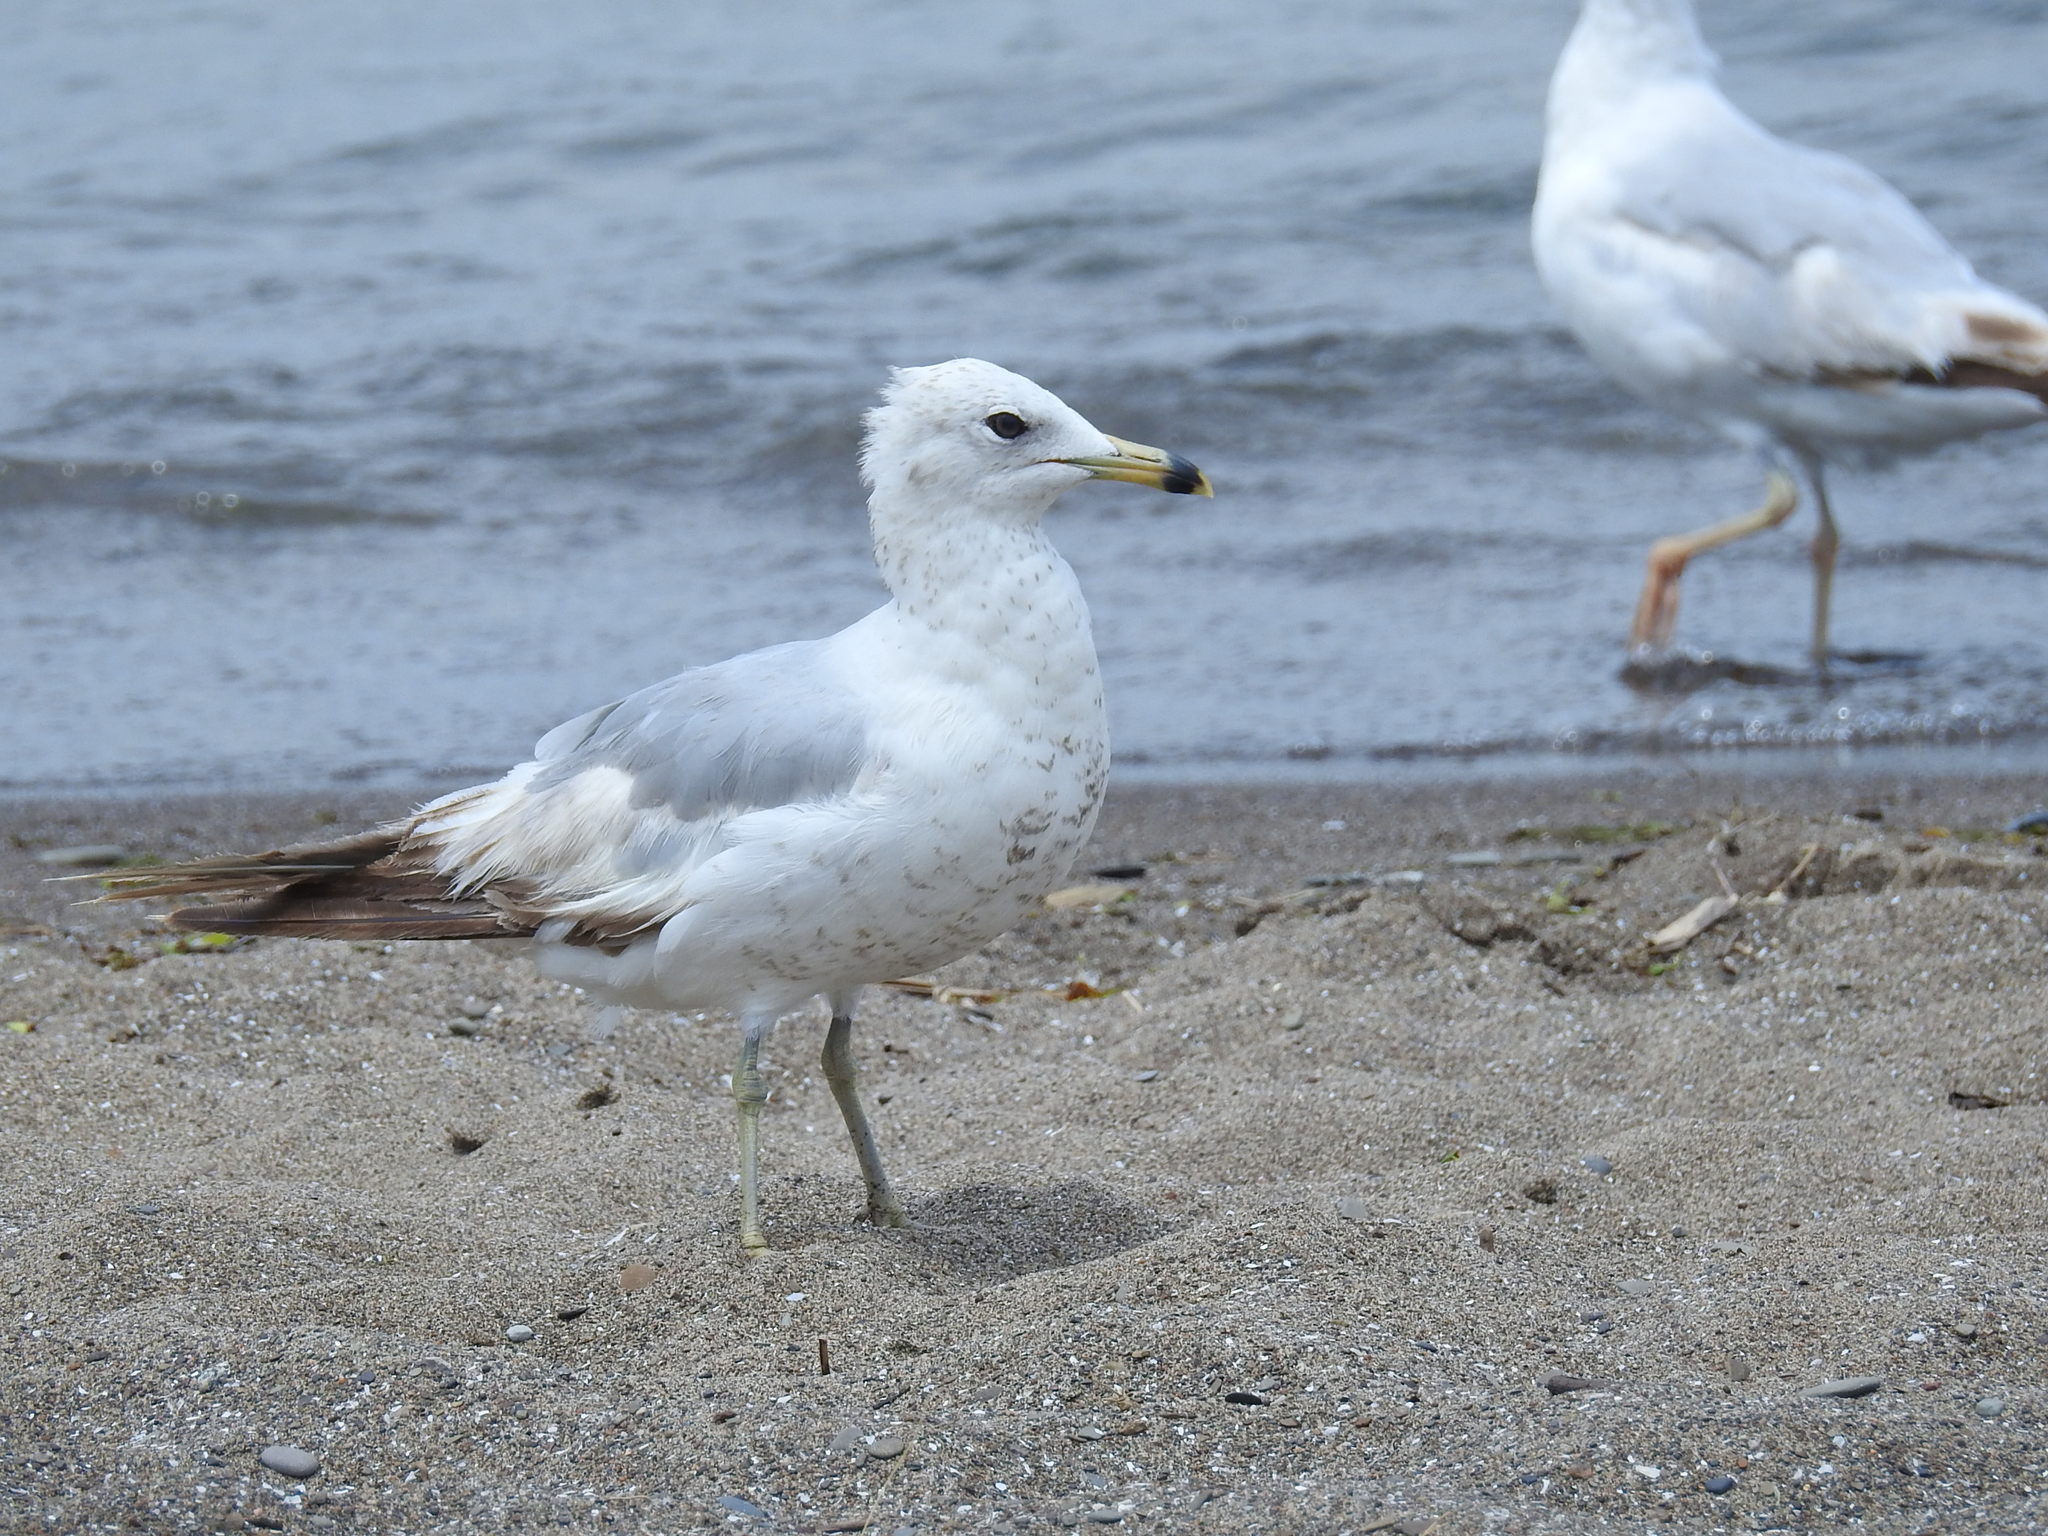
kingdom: Animalia
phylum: Chordata
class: Aves
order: Charadriiformes
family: Laridae
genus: Larus
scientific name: Larus delawarensis
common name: Ring-billed gull
